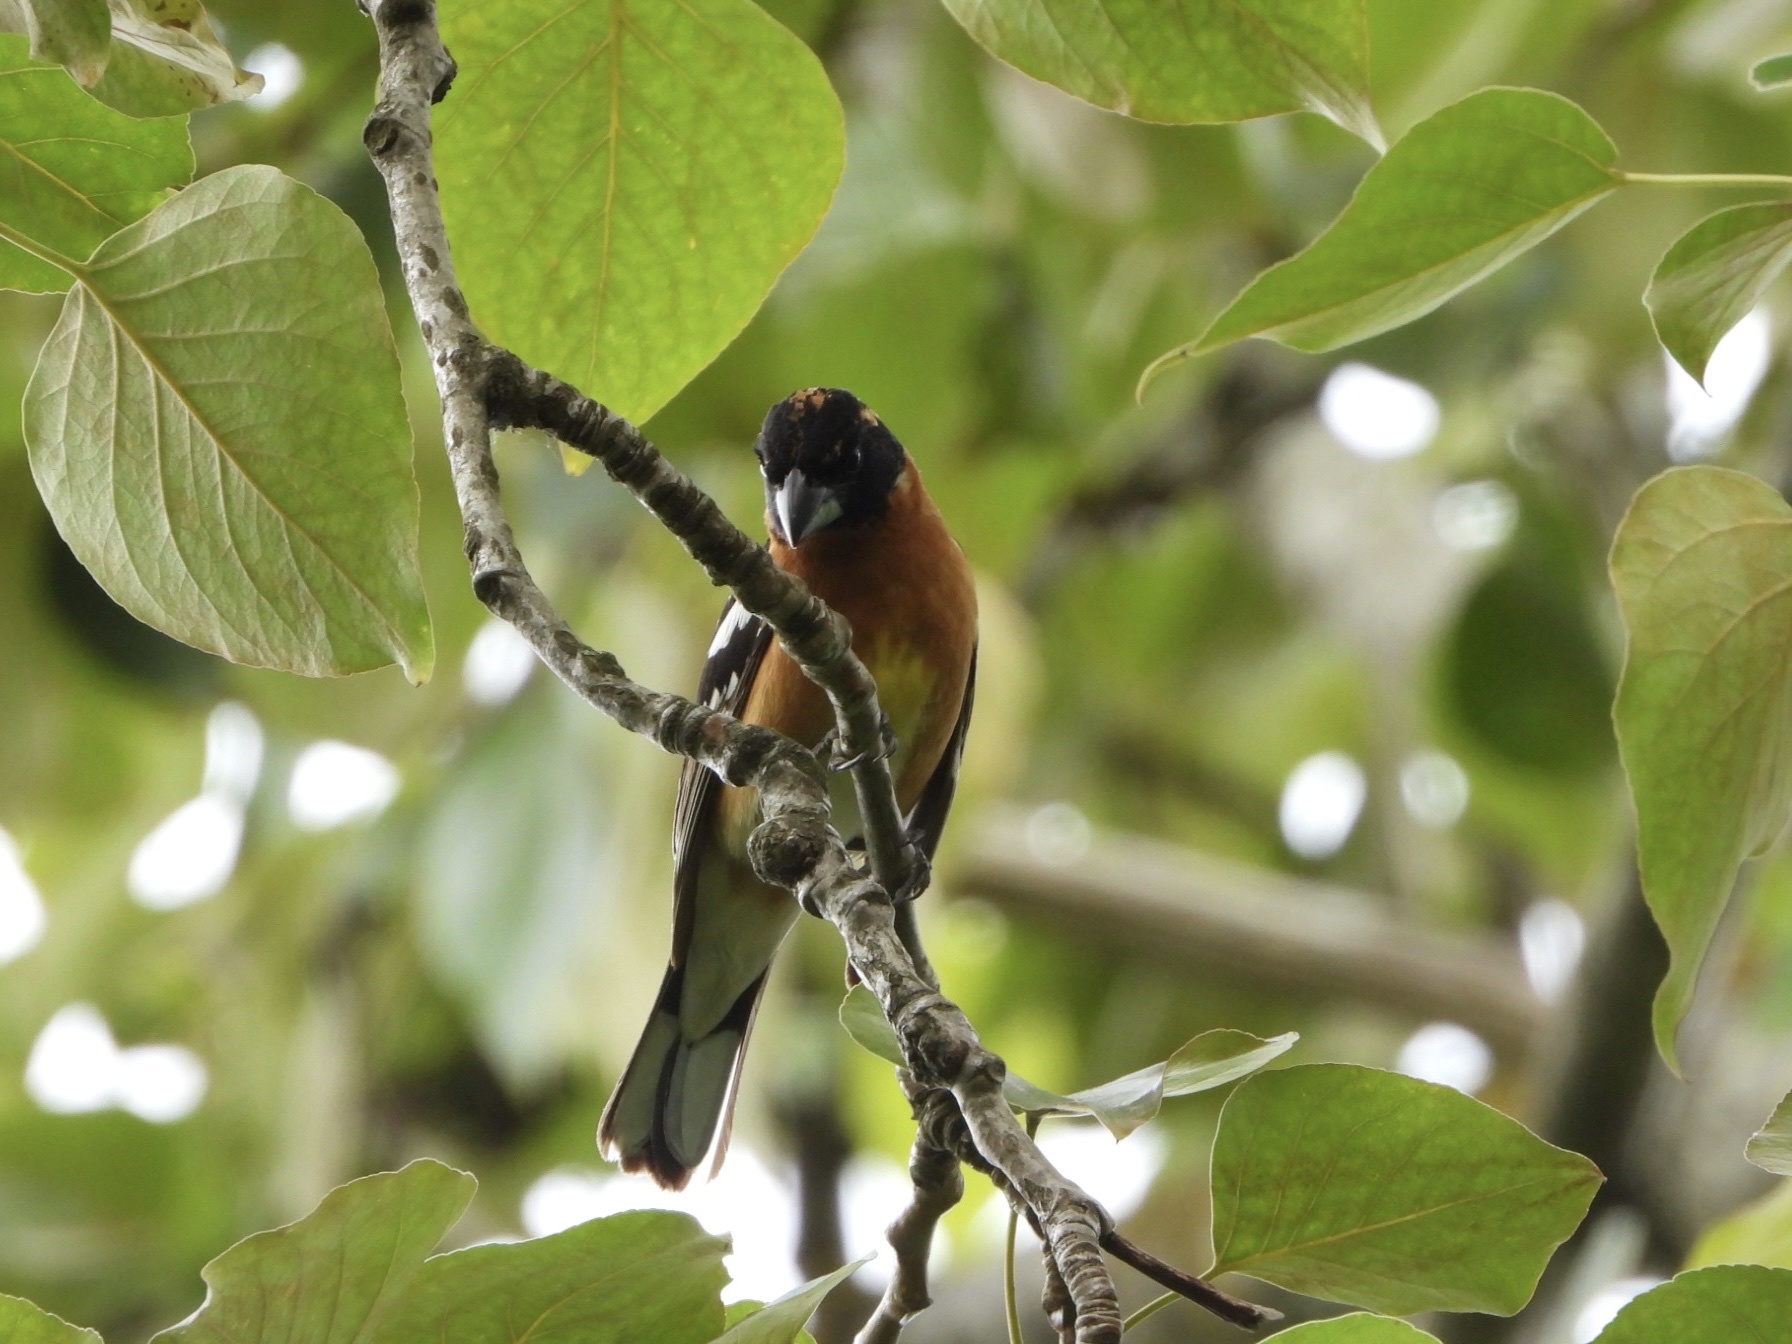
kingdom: Animalia
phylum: Chordata
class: Aves
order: Passeriformes
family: Cardinalidae
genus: Pheucticus
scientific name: Pheucticus melanocephalus
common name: Black-headed grosbeak
